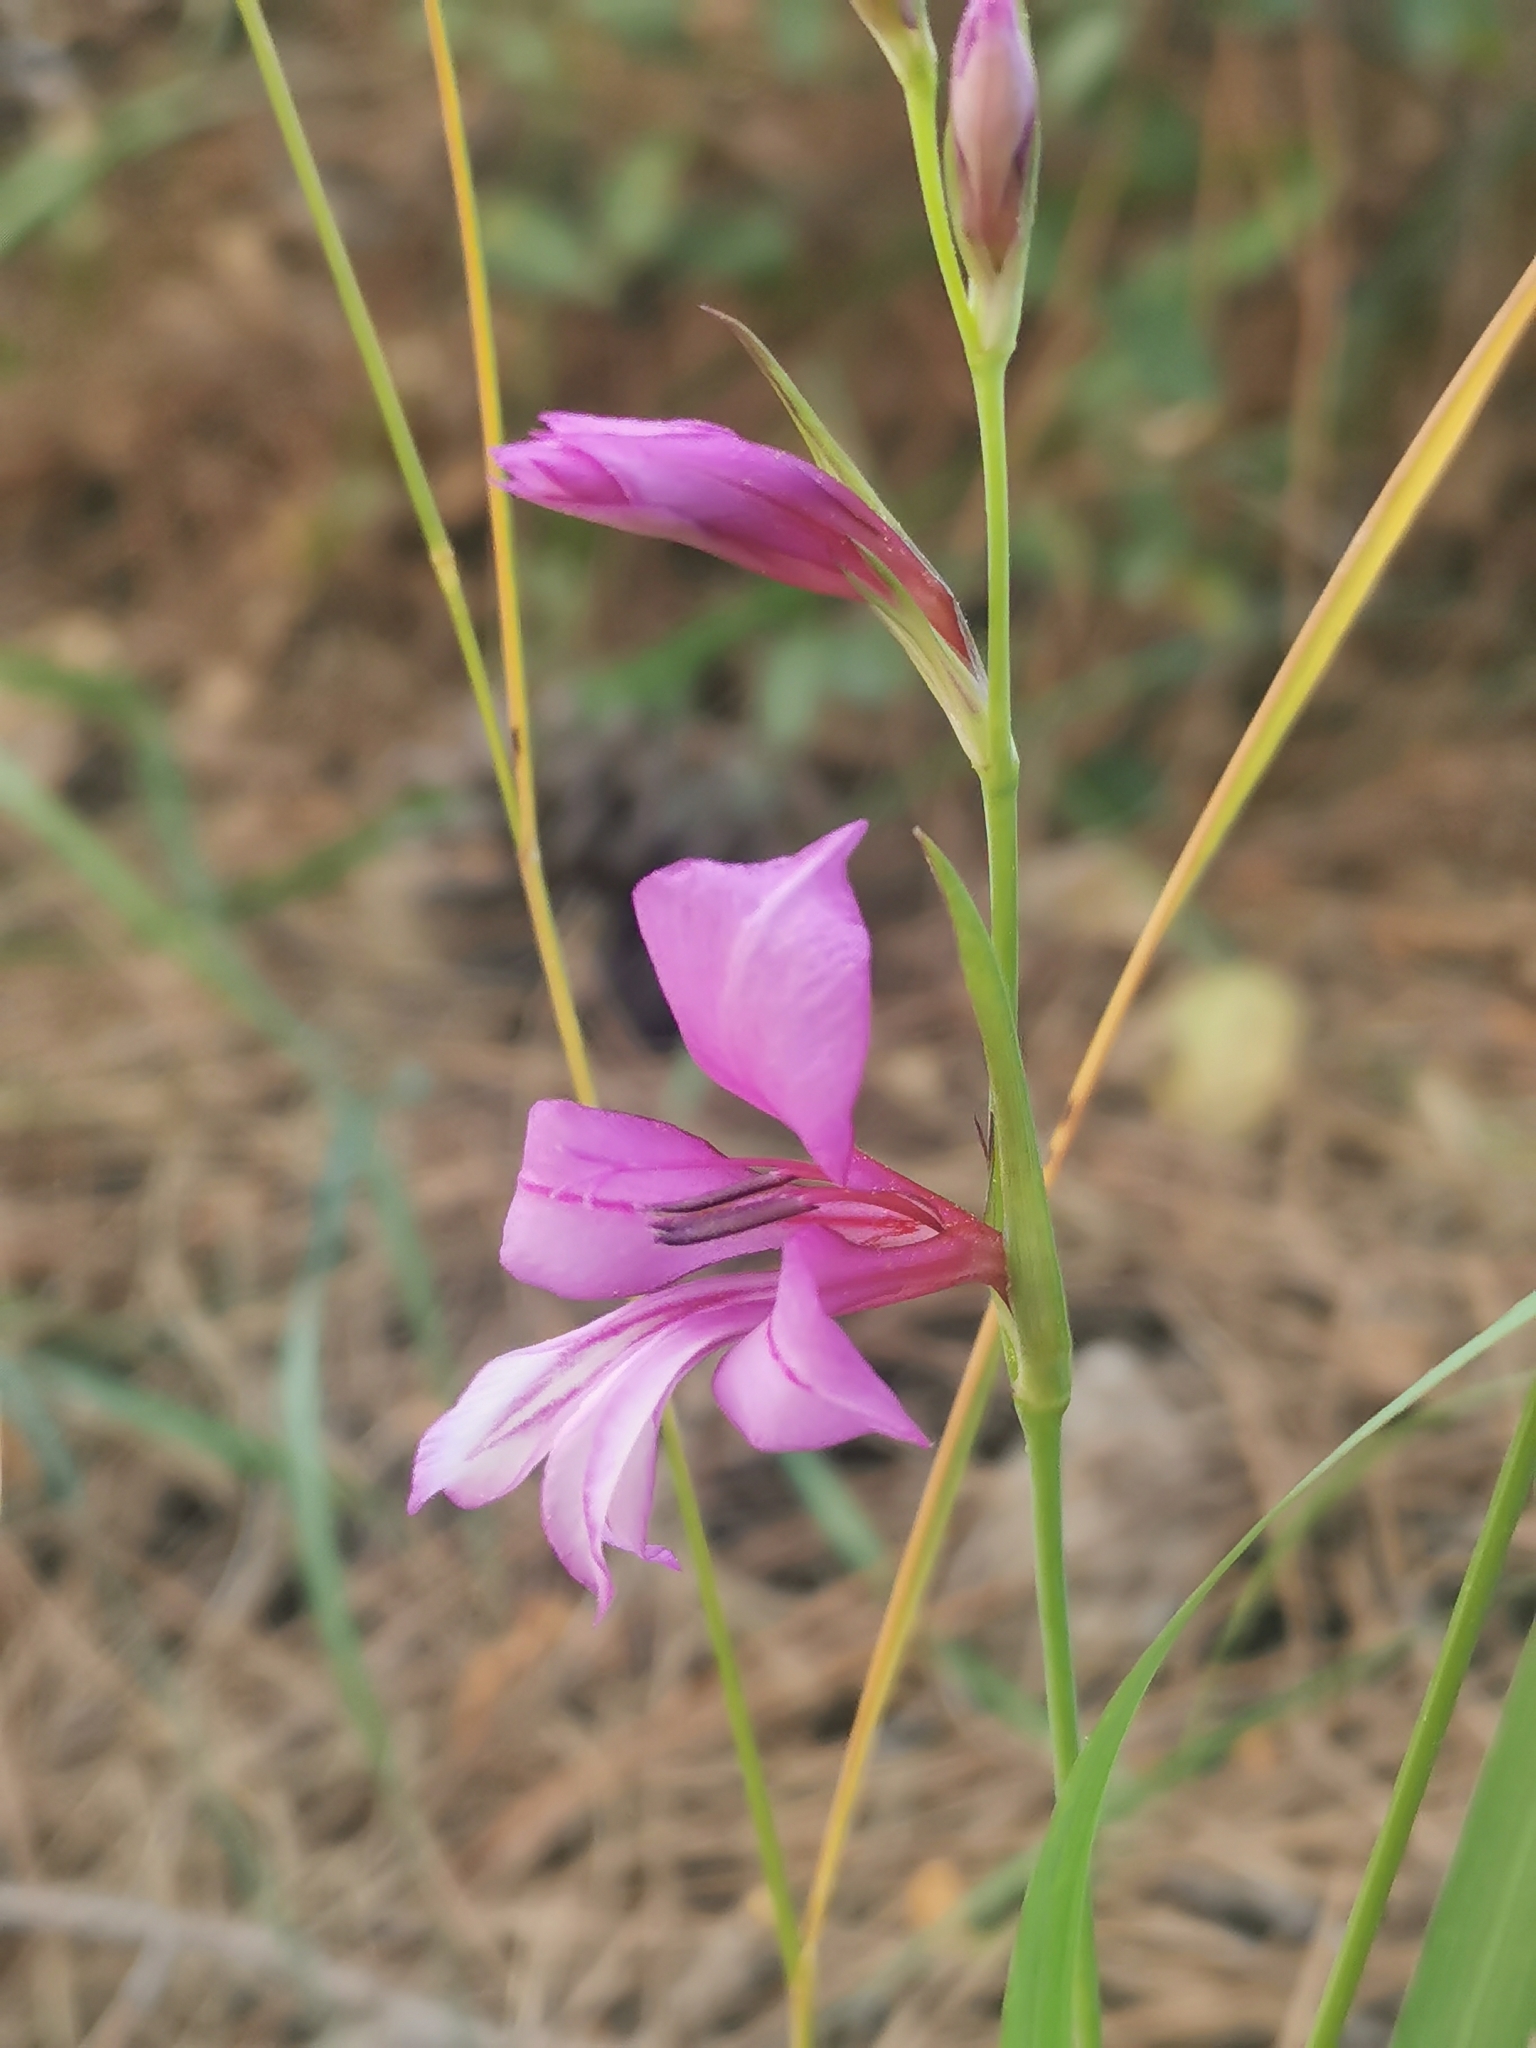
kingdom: Plantae
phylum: Tracheophyta
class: Liliopsida
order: Asparagales
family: Iridaceae
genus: Gladiolus
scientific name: Gladiolus anatolicus
